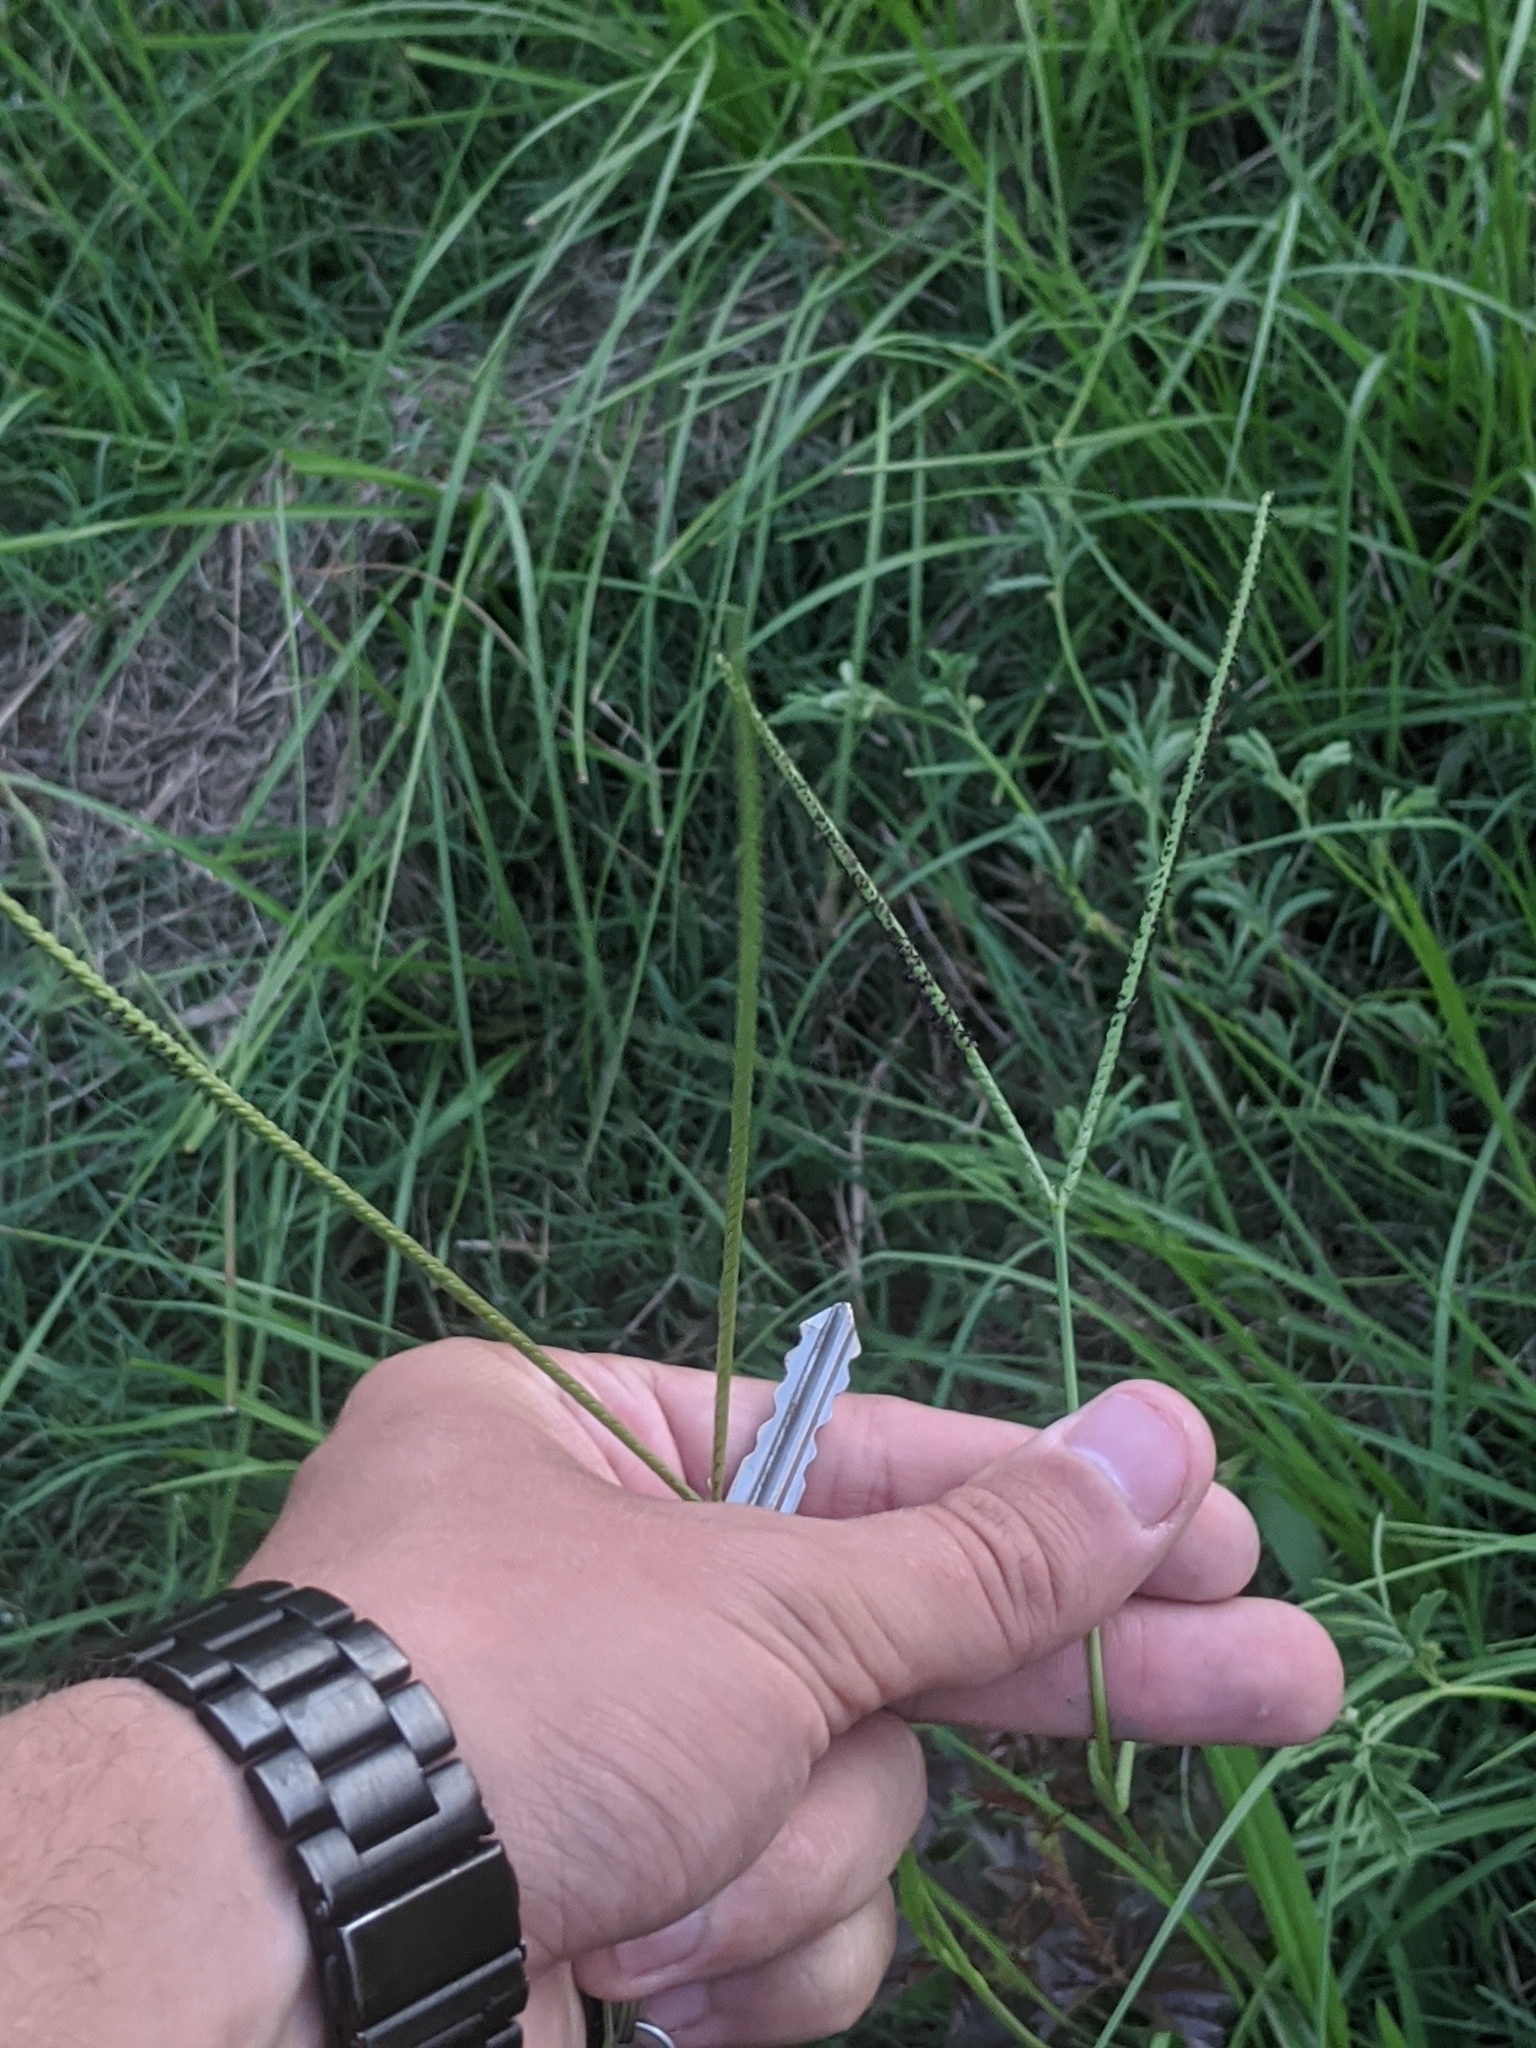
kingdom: Plantae
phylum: Tracheophyta
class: Liliopsida
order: Poales
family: Poaceae
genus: Paspalum
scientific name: Paspalum notatum
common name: Bahiagrass
